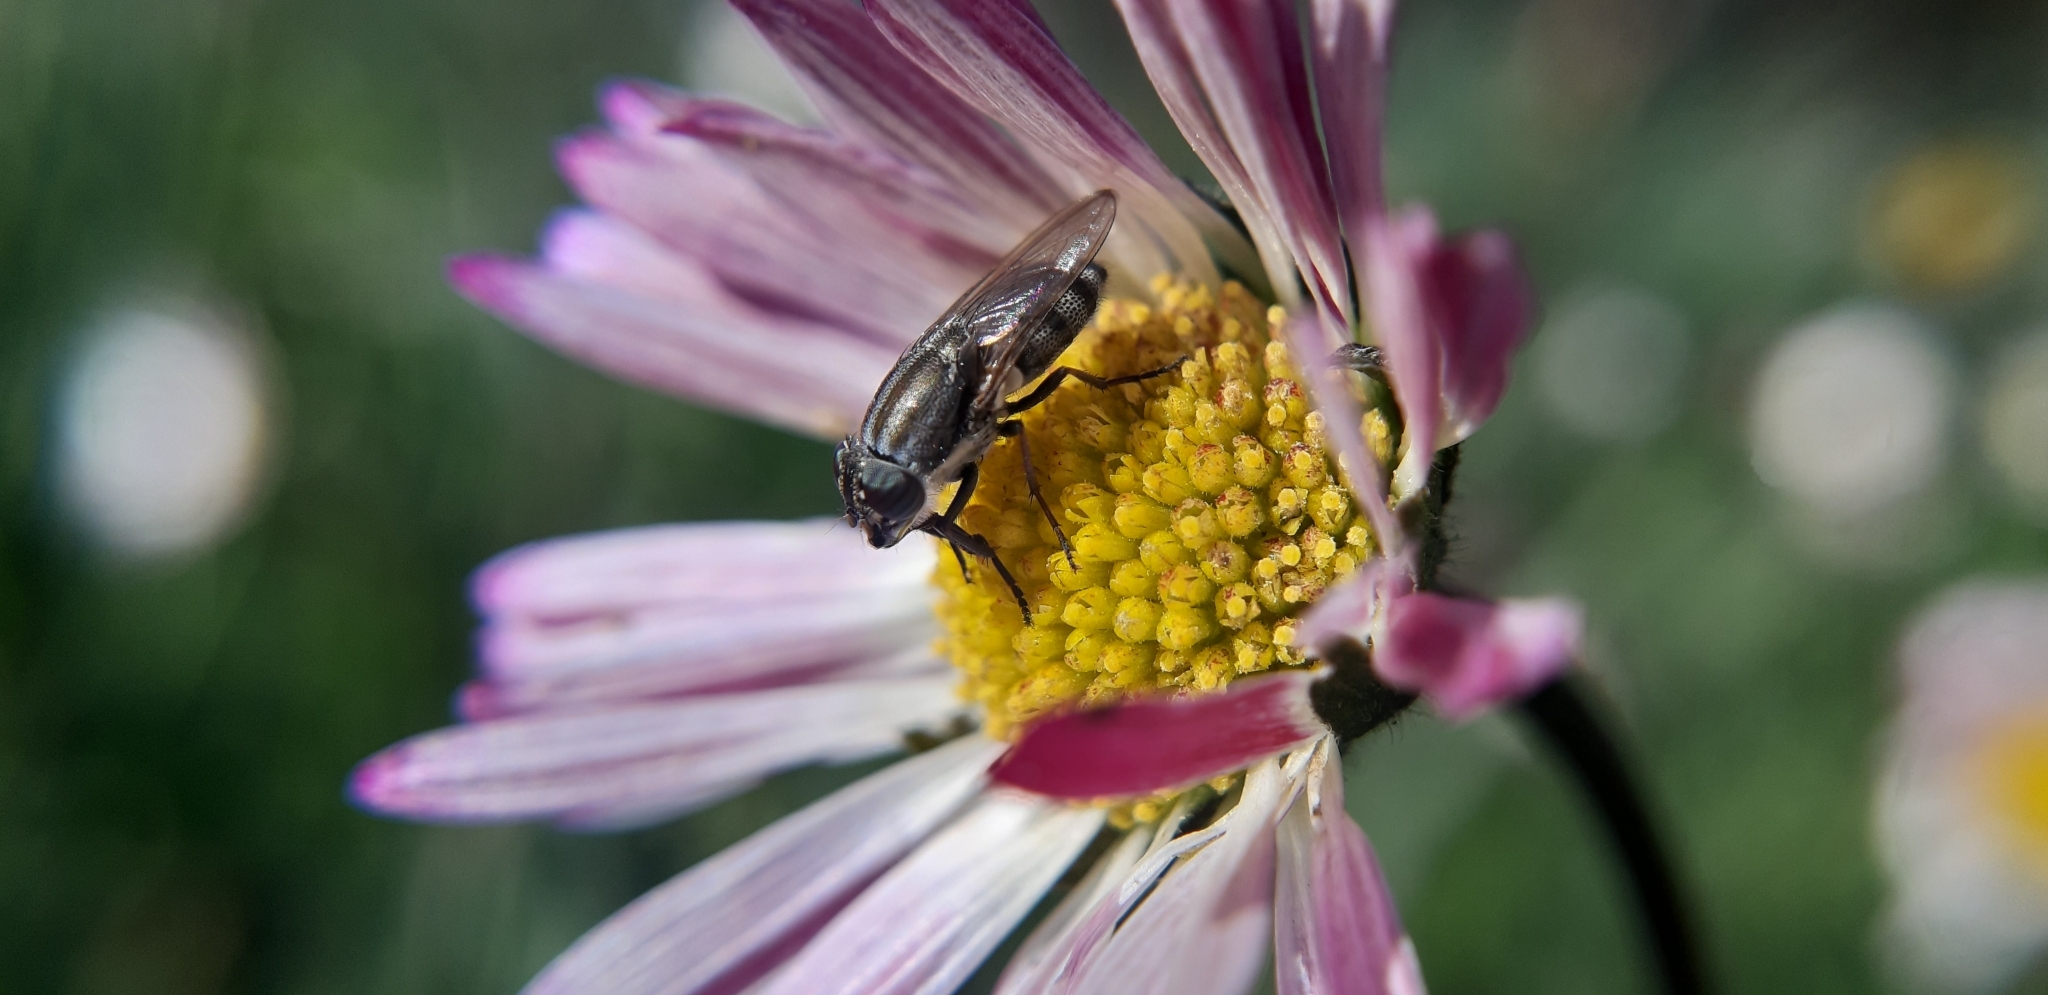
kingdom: Animalia
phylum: Arthropoda
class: Insecta
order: Diptera
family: Calliphoridae
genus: Stomorhina
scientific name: Stomorhina lunata
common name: Locust blowfly
